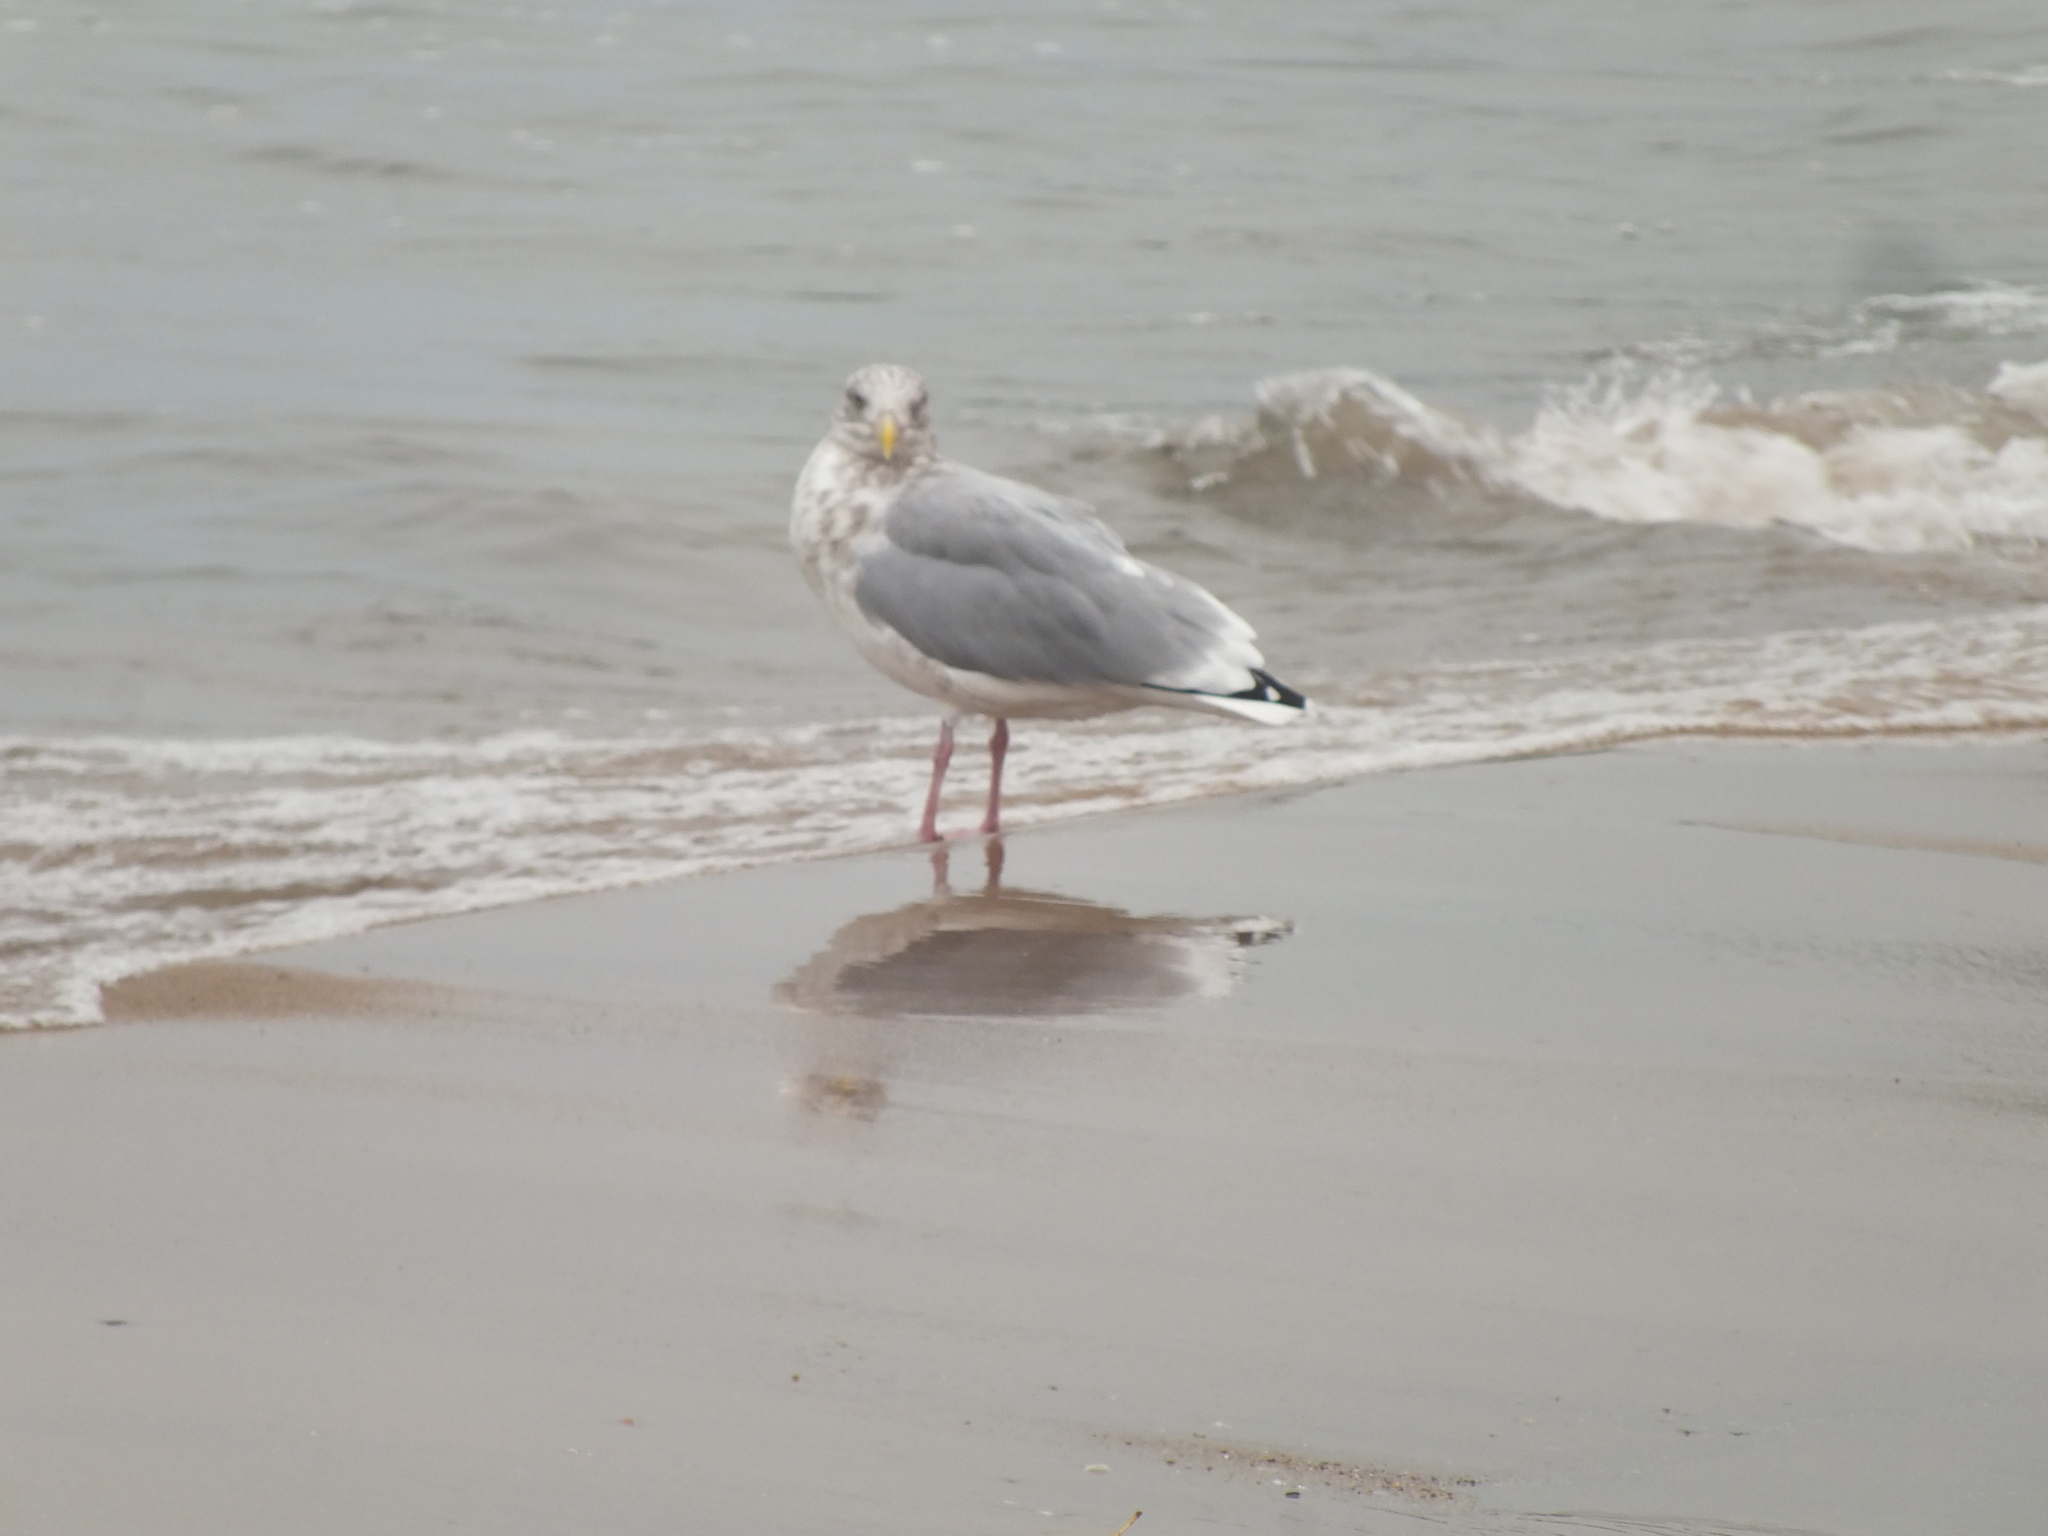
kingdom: Animalia
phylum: Chordata
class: Aves
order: Charadriiformes
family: Laridae
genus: Larus
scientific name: Larus argentatus
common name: Herring gull
